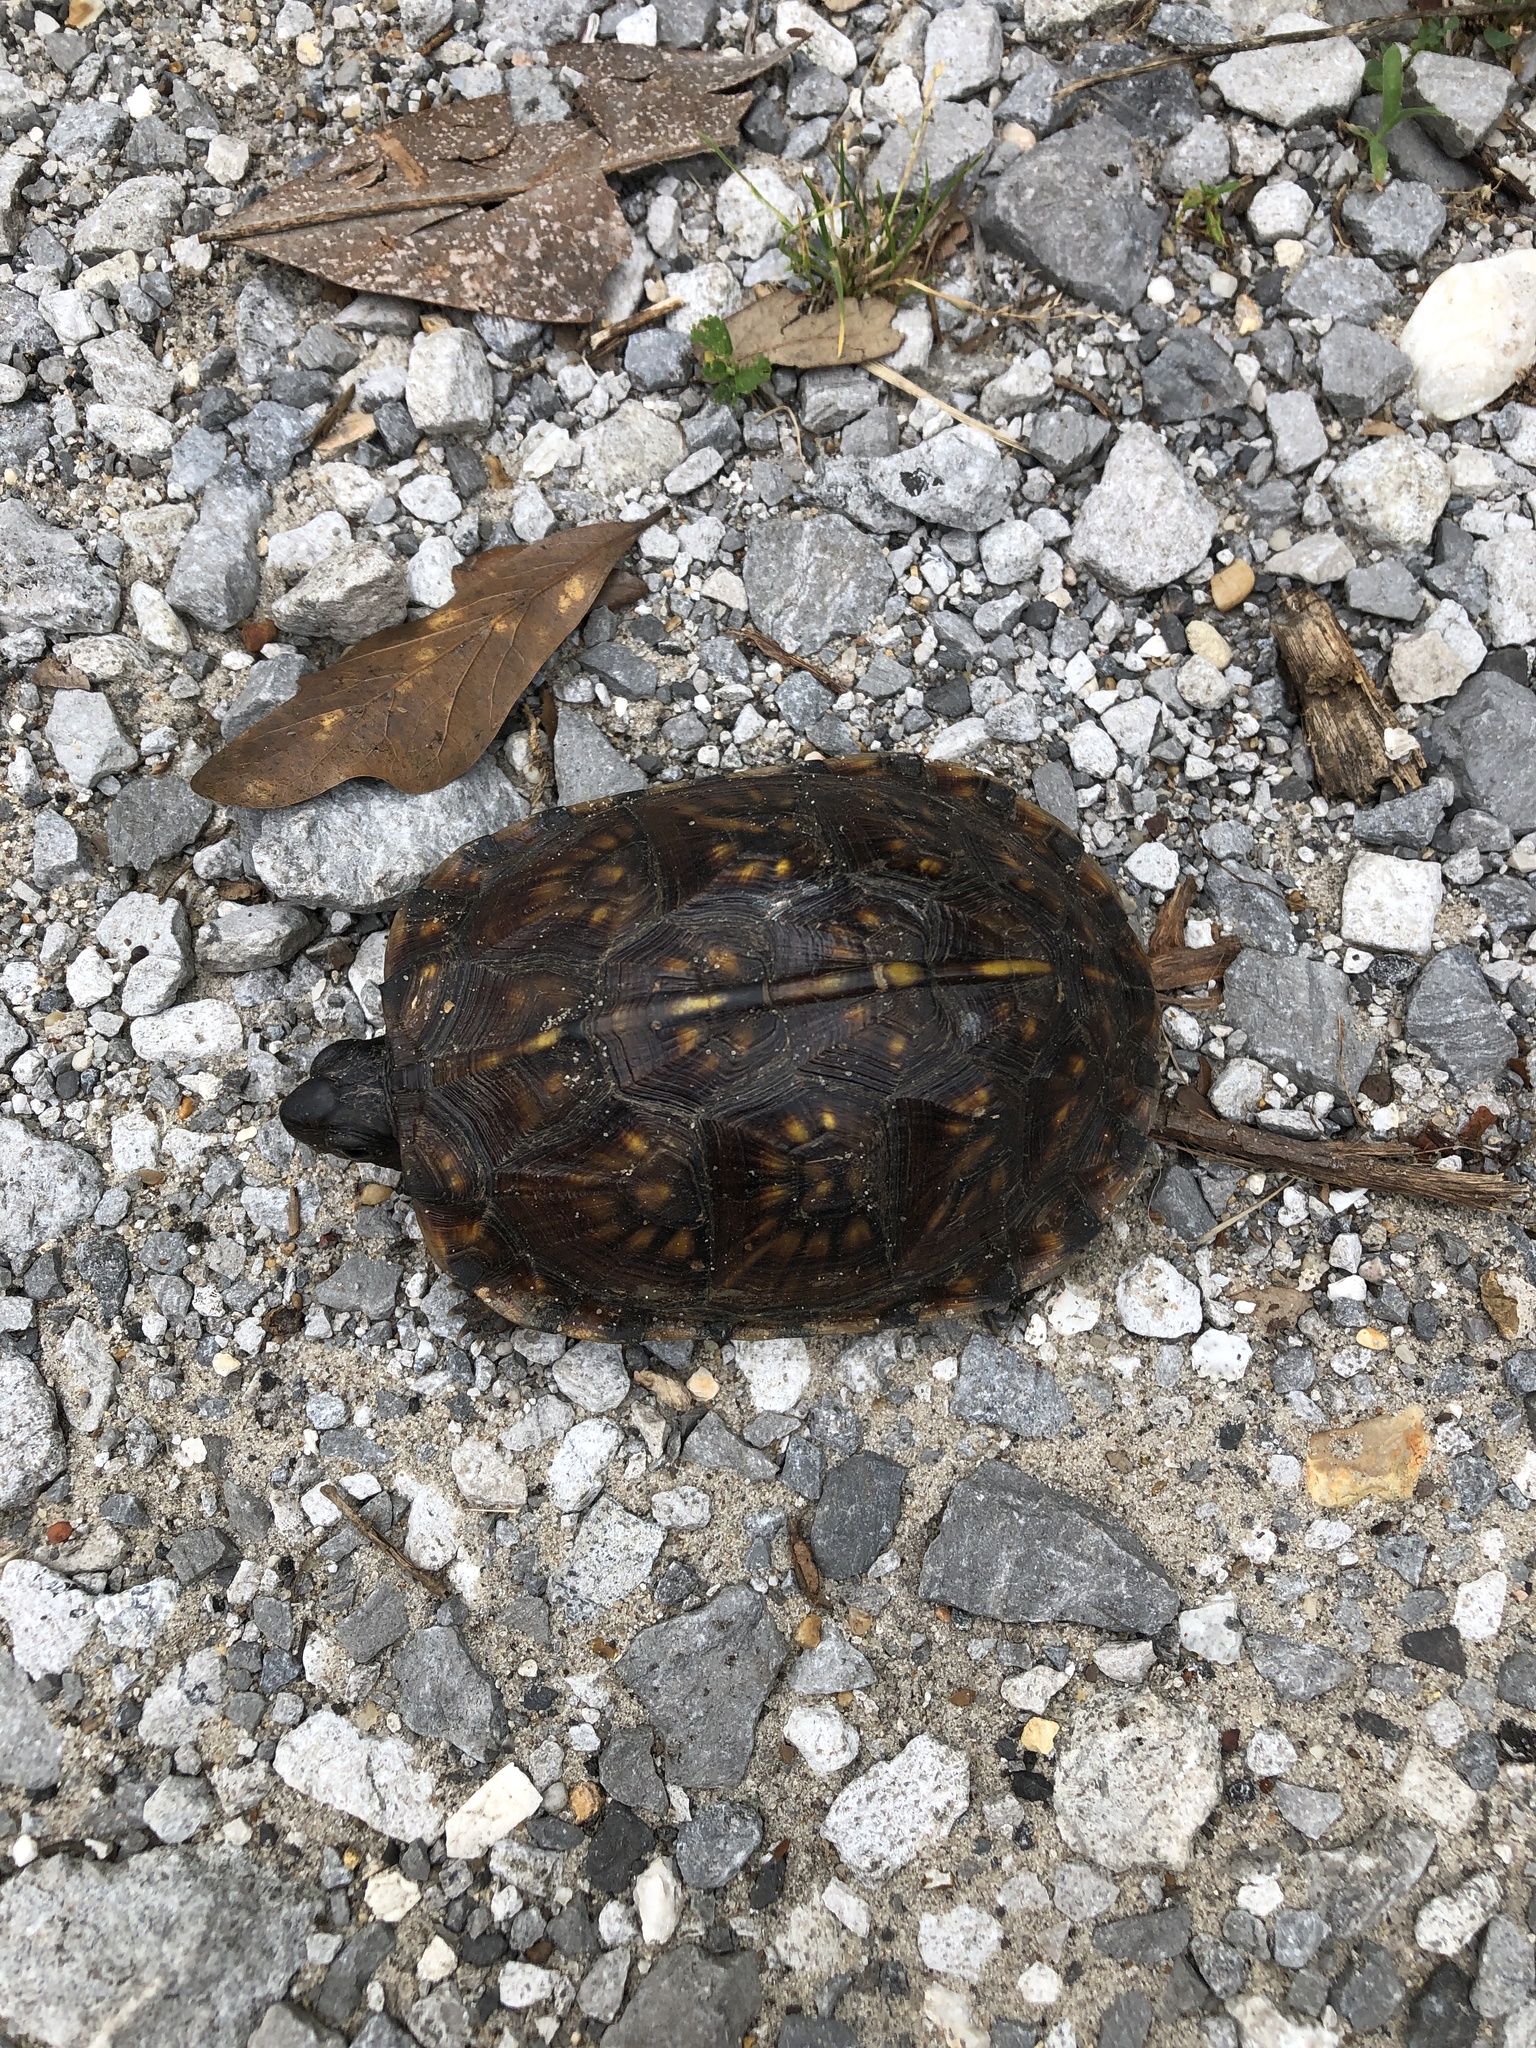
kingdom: Animalia
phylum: Chordata
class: Testudines
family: Emydidae
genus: Terrapene
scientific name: Terrapene carolina
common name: Common box turtle
